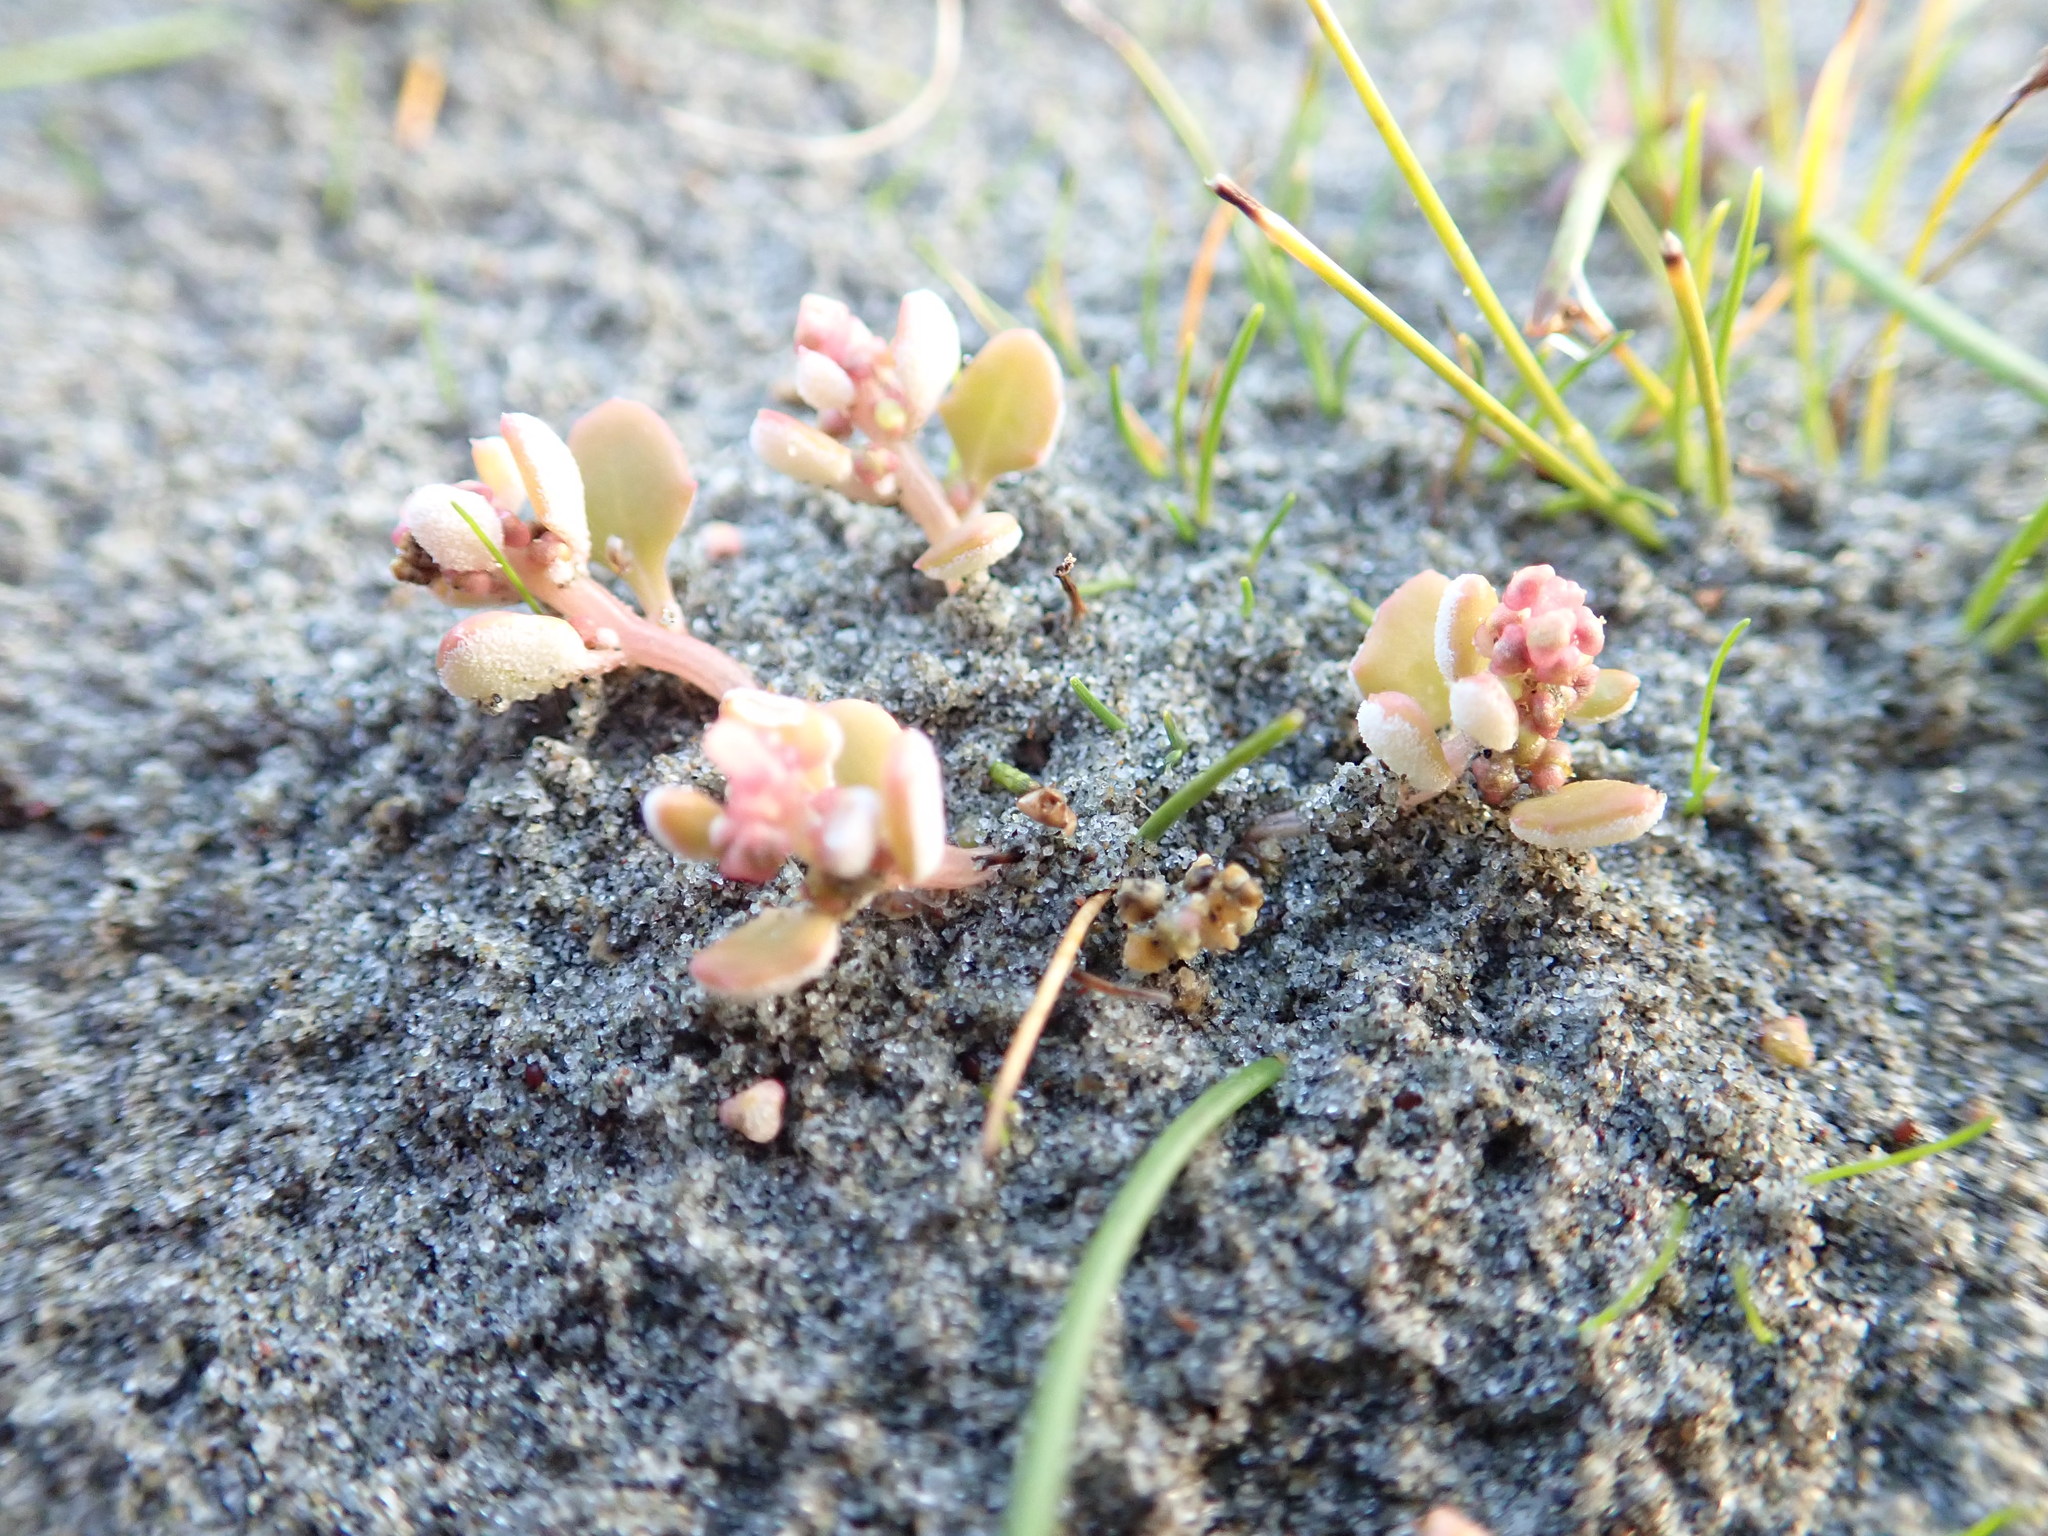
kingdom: Plantae
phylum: Tracheophyta
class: Magnoliopsida
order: Caryophyllales
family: Amaranthaceae
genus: Oxybasis
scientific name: Oxybasis ambigua
